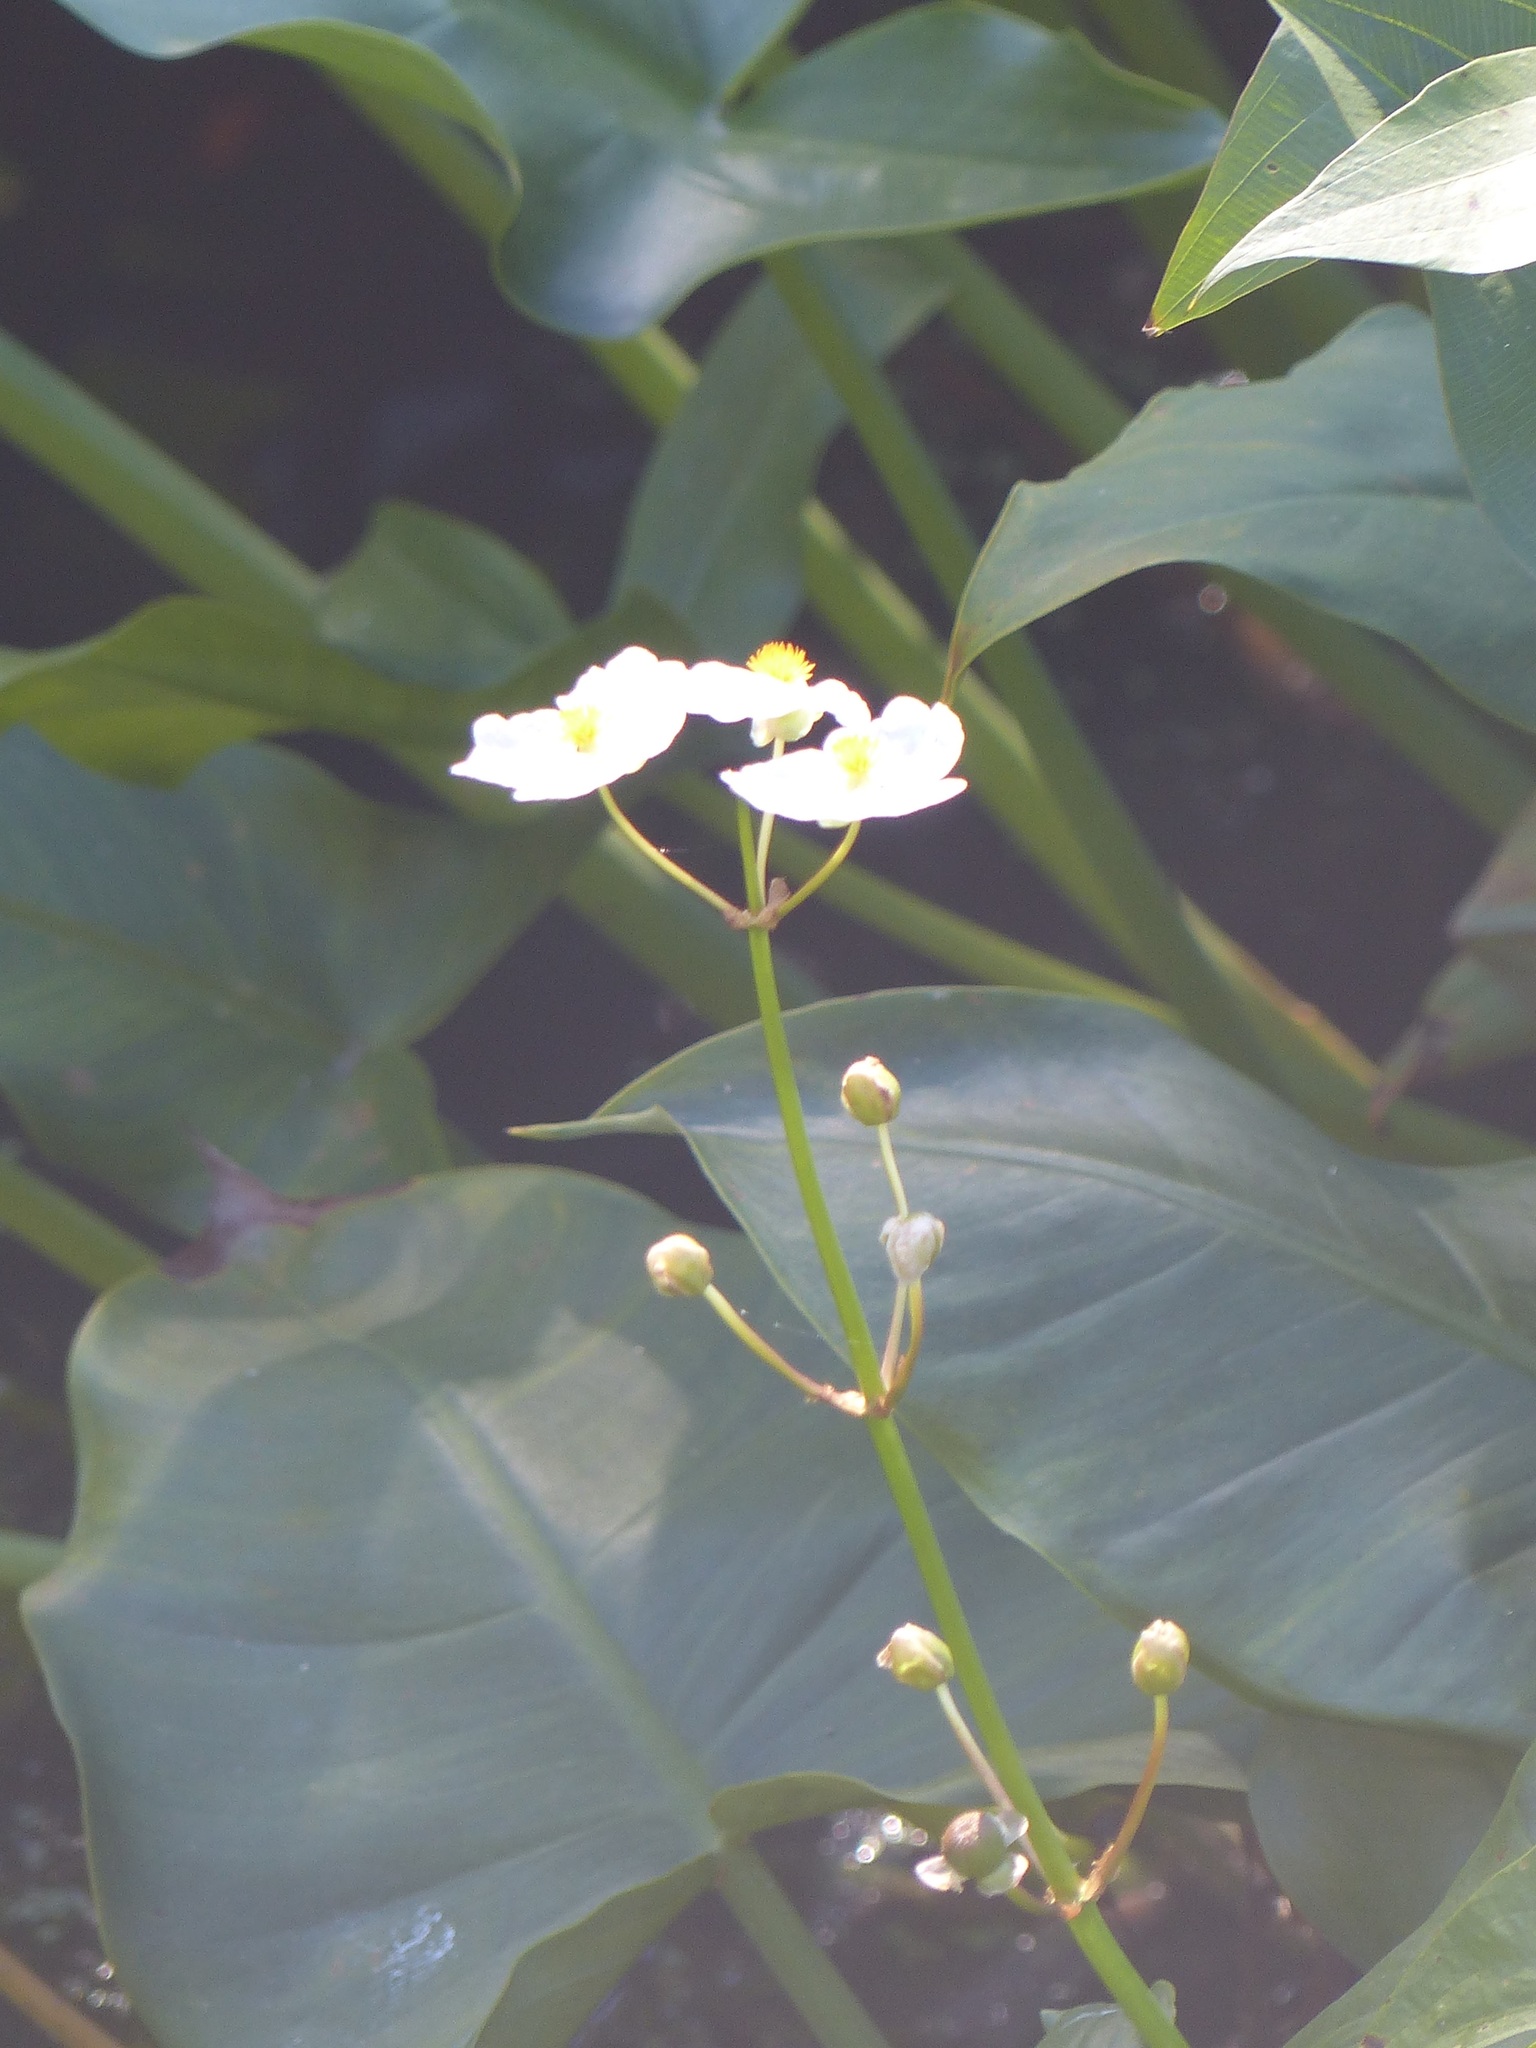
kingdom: Plantae
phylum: Tracheophyta
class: Liliopsida
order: Alismatales
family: Alismataceae
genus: Sagittaria
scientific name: Sagittaria latifolia
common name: Duck-potato
